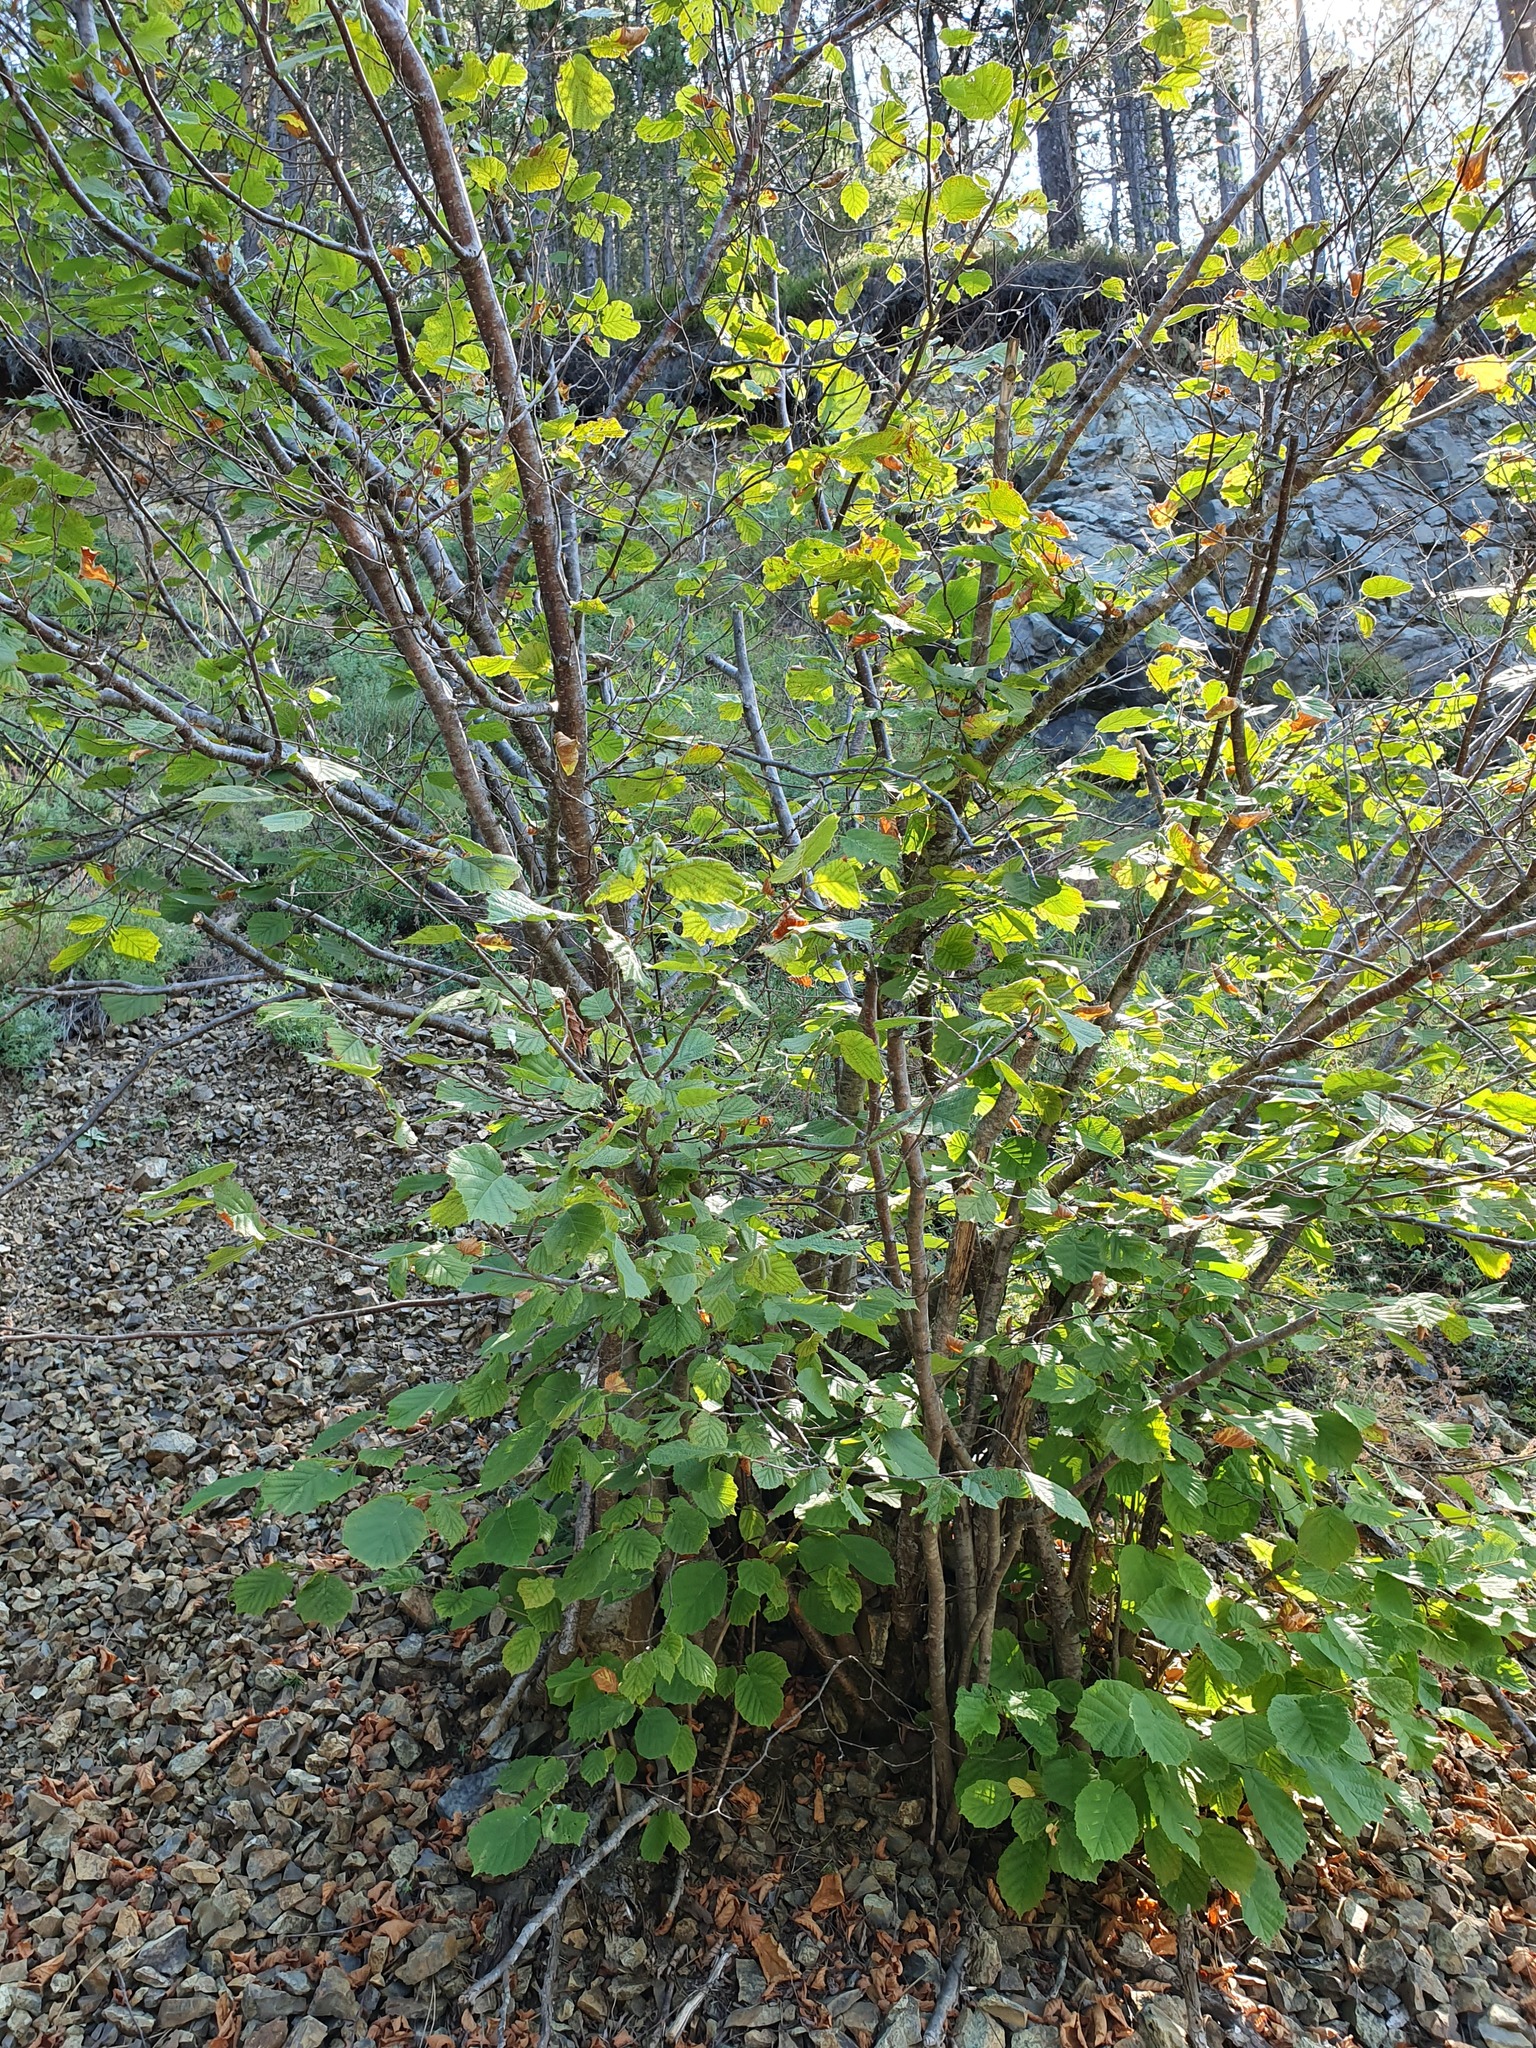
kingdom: Plantae
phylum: Tracheophyta
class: Magnoliopsida
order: Fagales
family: Betulaceae
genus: Corylus
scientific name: Corylus avellana
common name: European hazel
